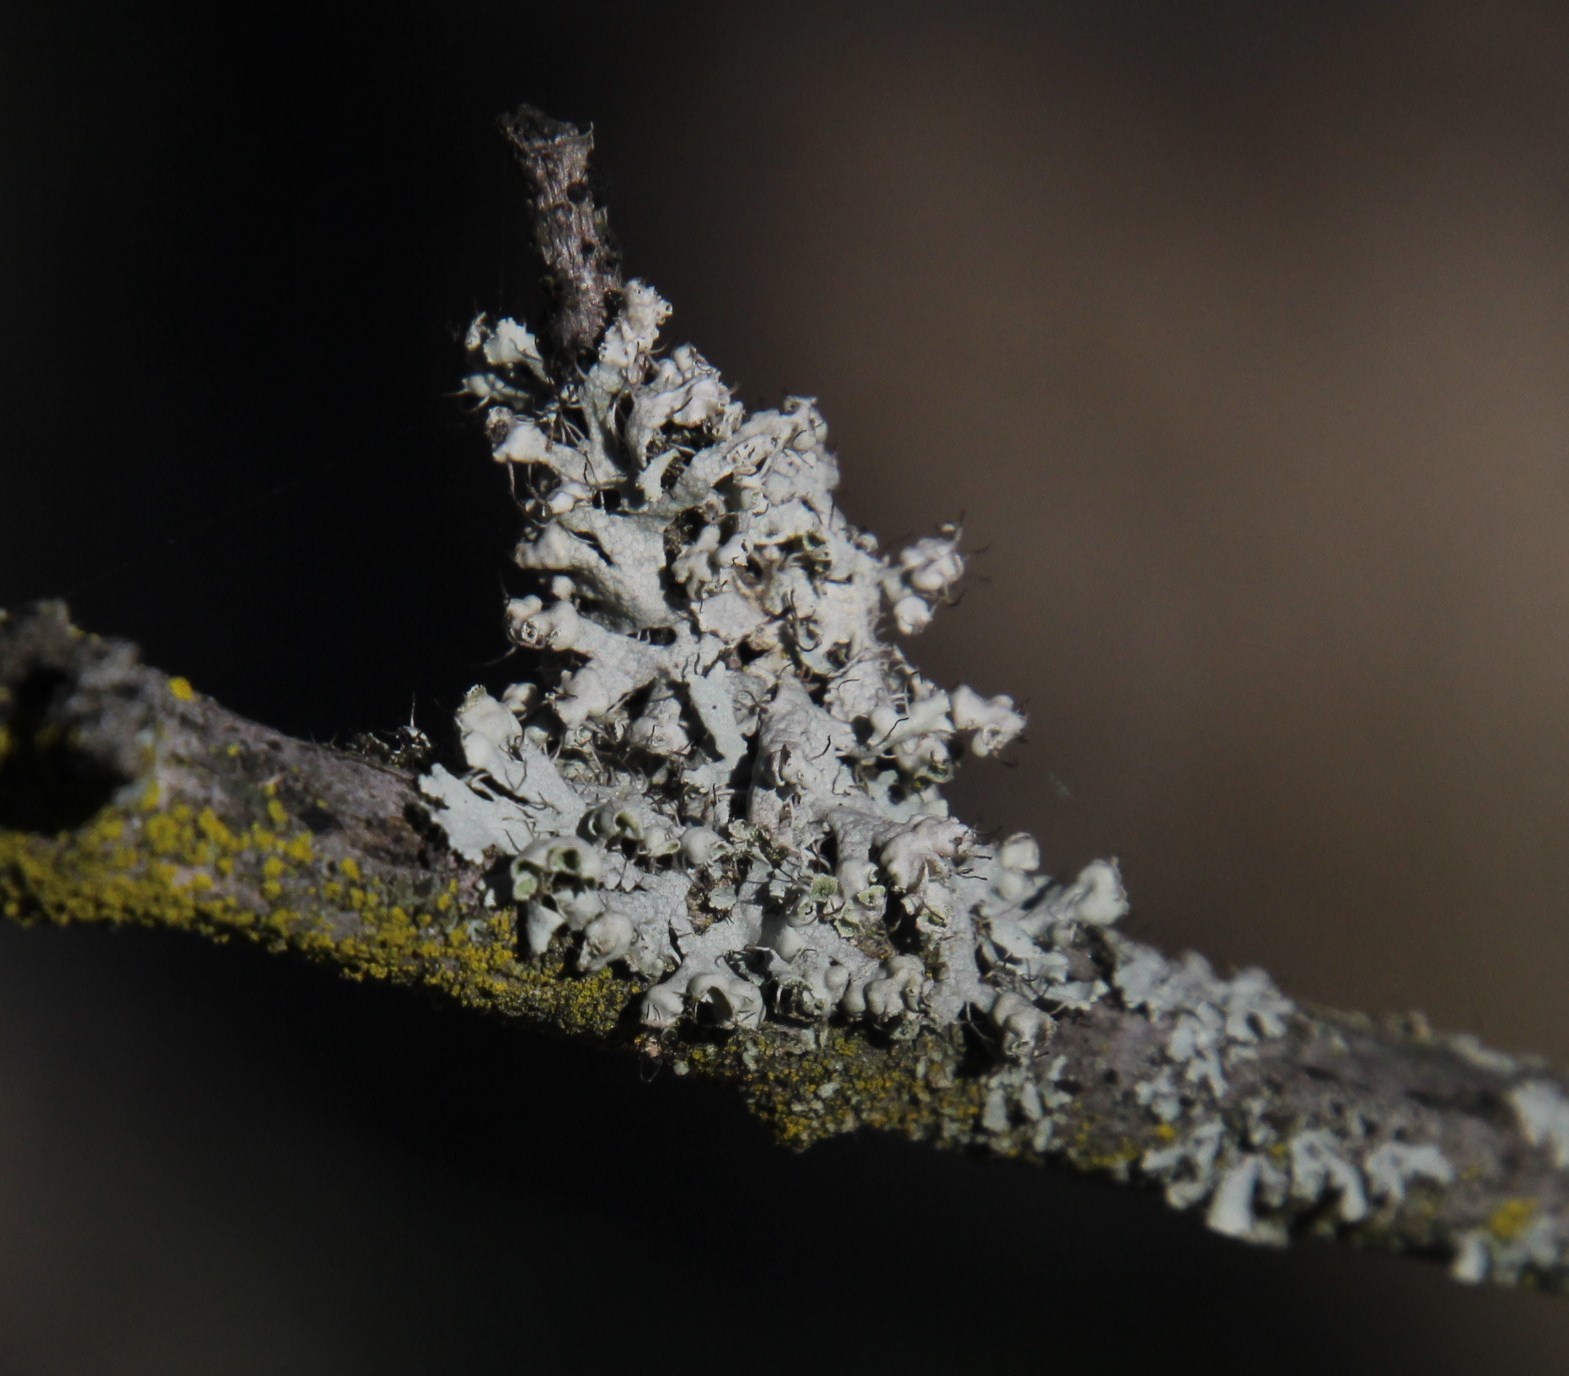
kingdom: Fungi
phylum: Ascomycota
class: Lecanoromycetes
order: Caliciales
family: Physciaceae
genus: Physcia
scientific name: Physcia adscendens
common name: Hooded rosette lichen
